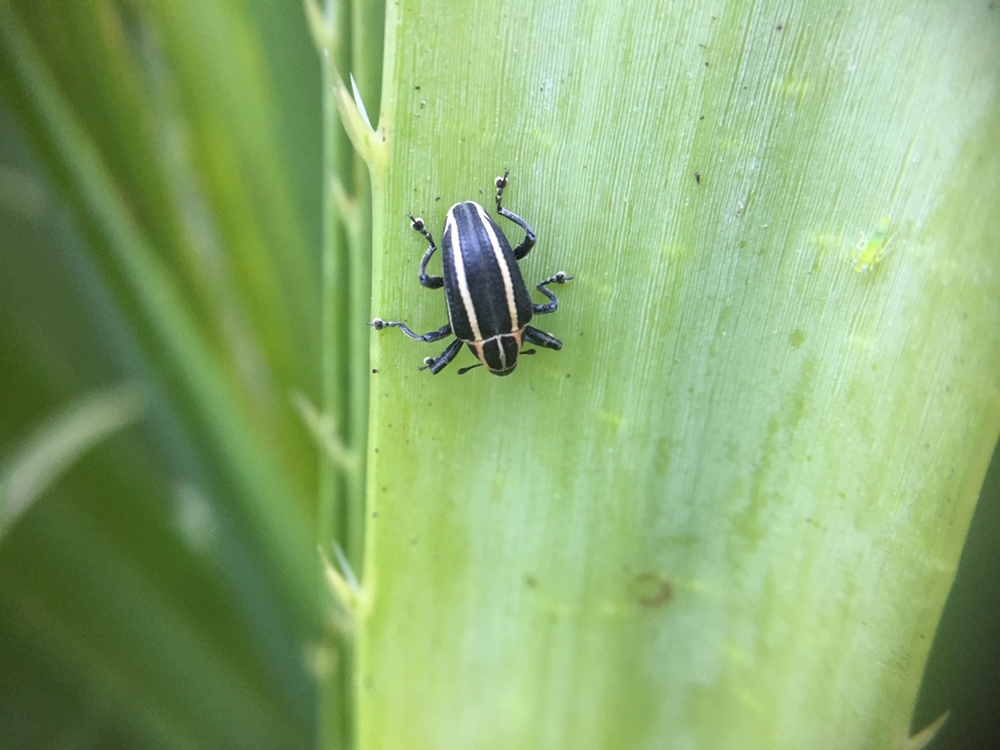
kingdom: Animalia
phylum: Arthropoda
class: Insecta
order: Coleoptera
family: Curculionidae
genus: Neodiplogrammus
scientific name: Neodiplogrammus
